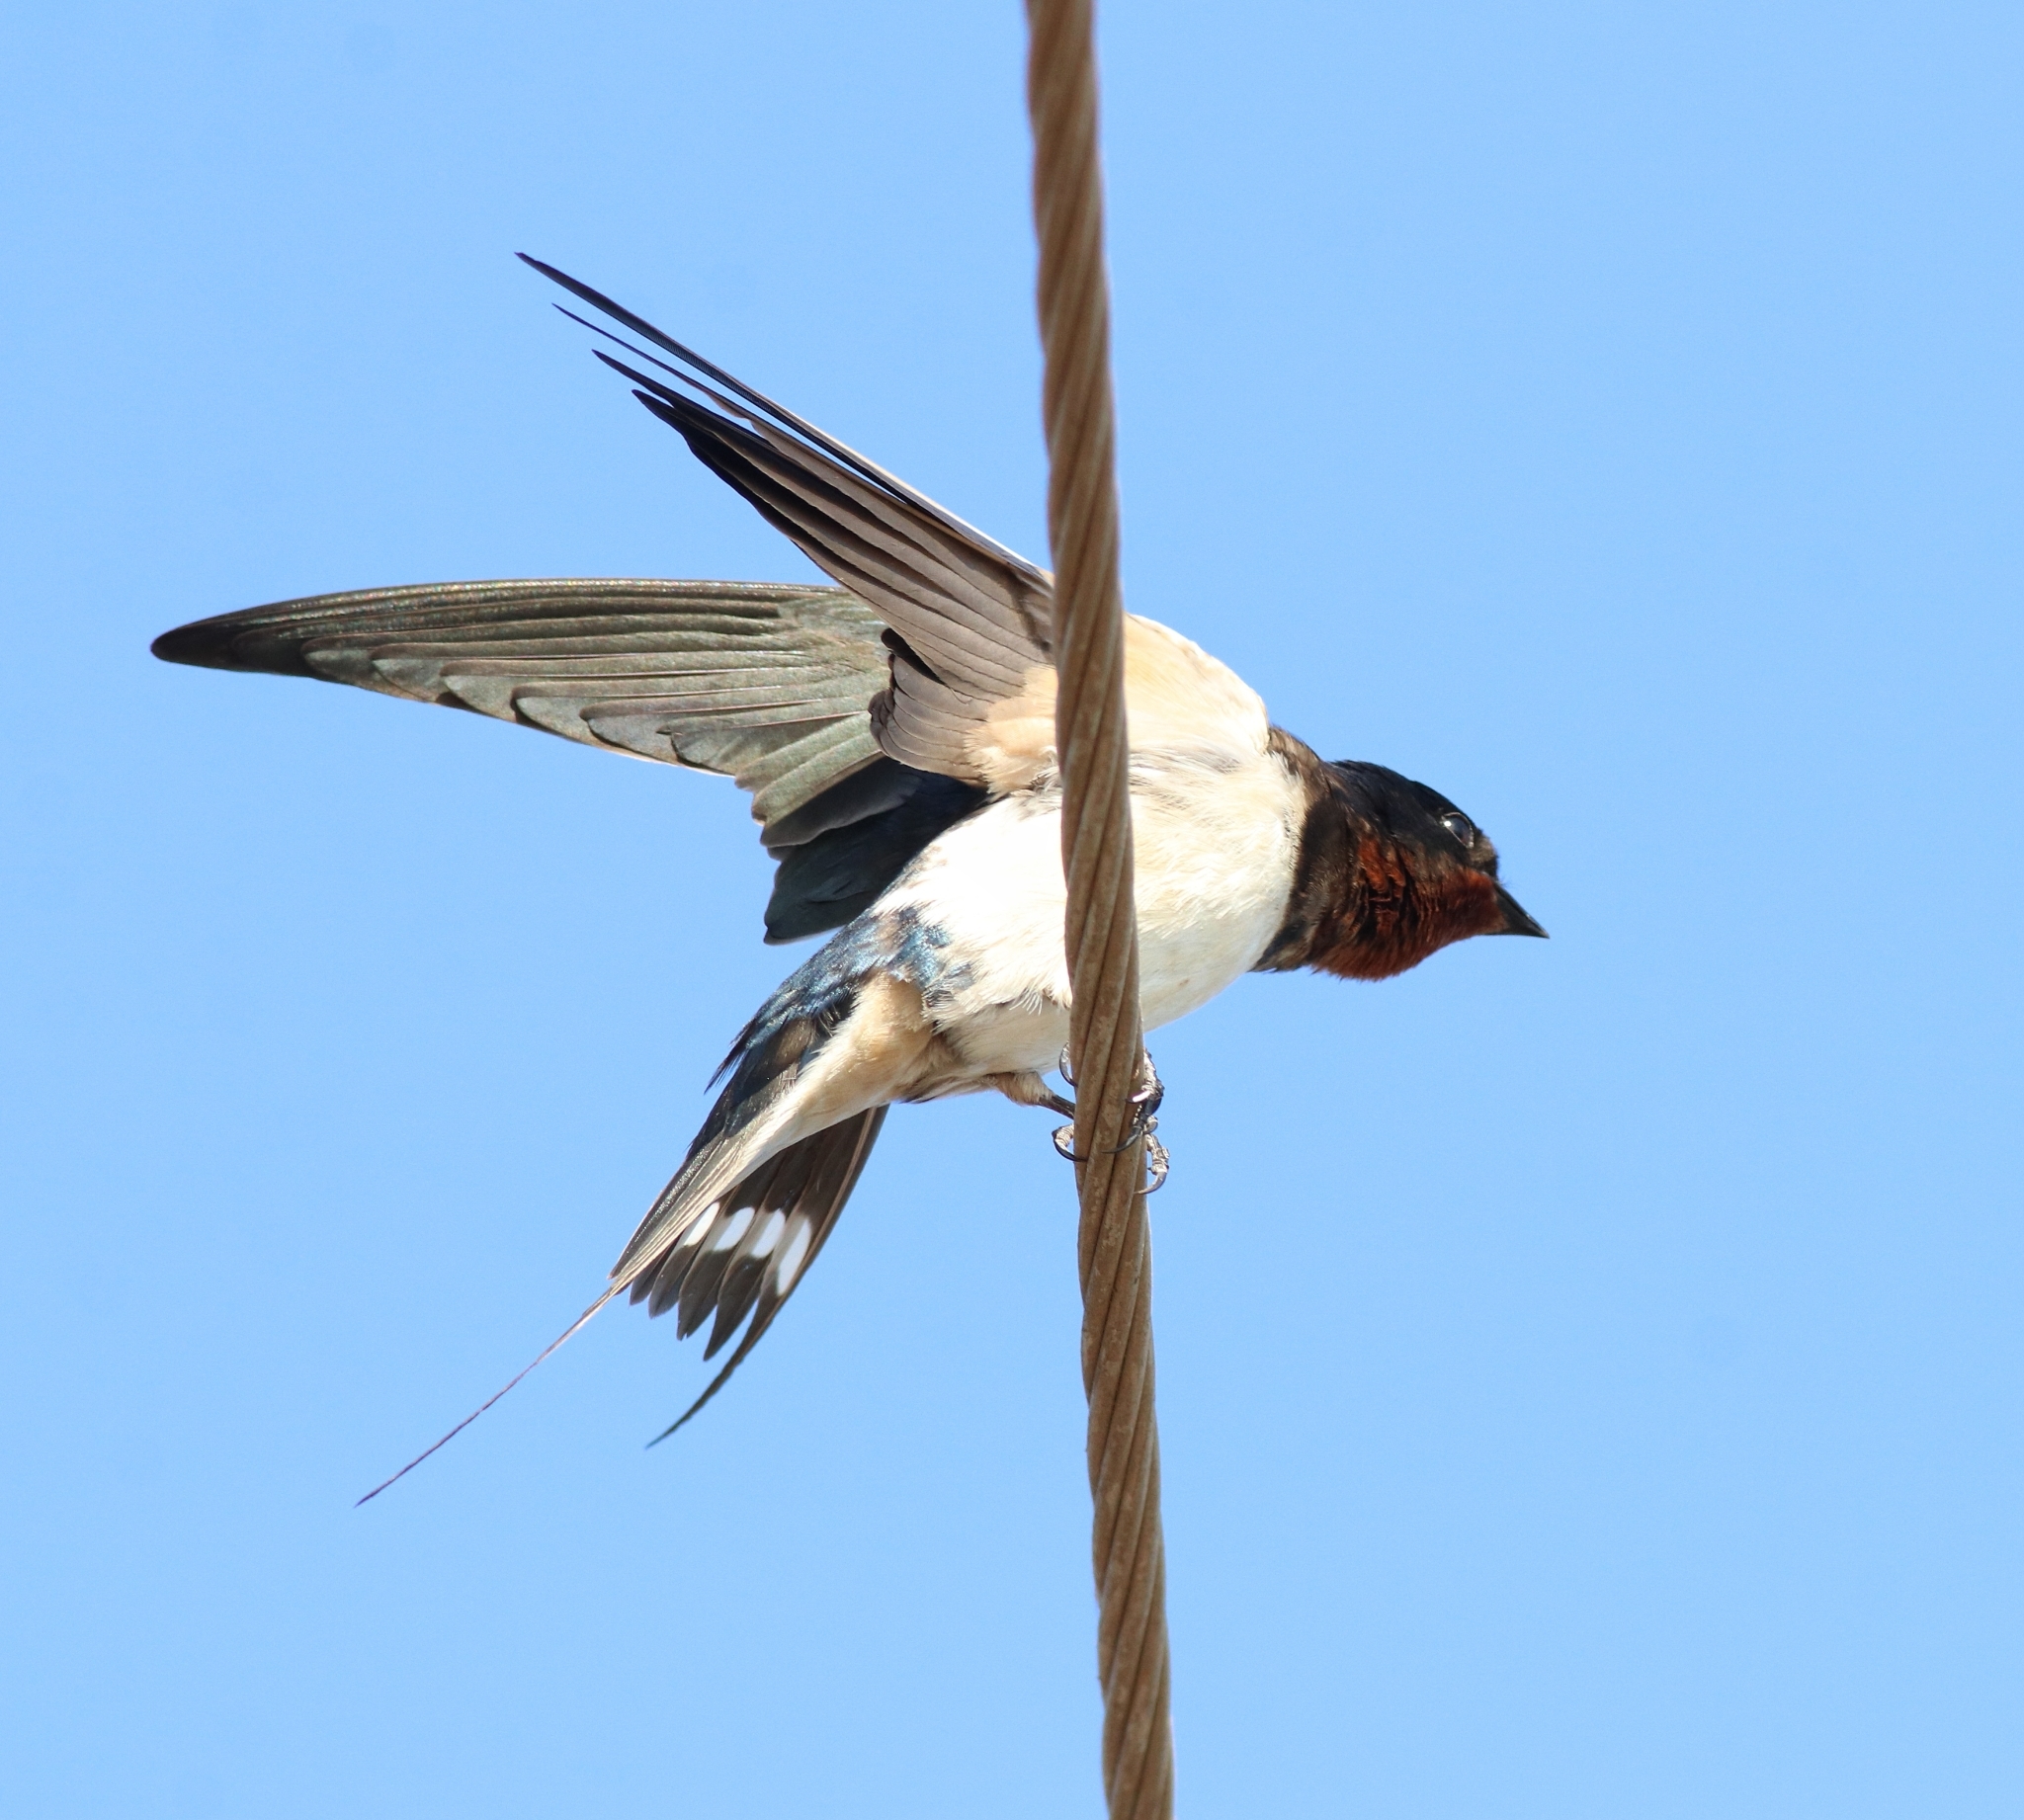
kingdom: Animalia
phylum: Chordata
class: Aves
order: Passeriformes
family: Hirundinidae
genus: Hirundo
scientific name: Hirundo rustica
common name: Barn swallow
